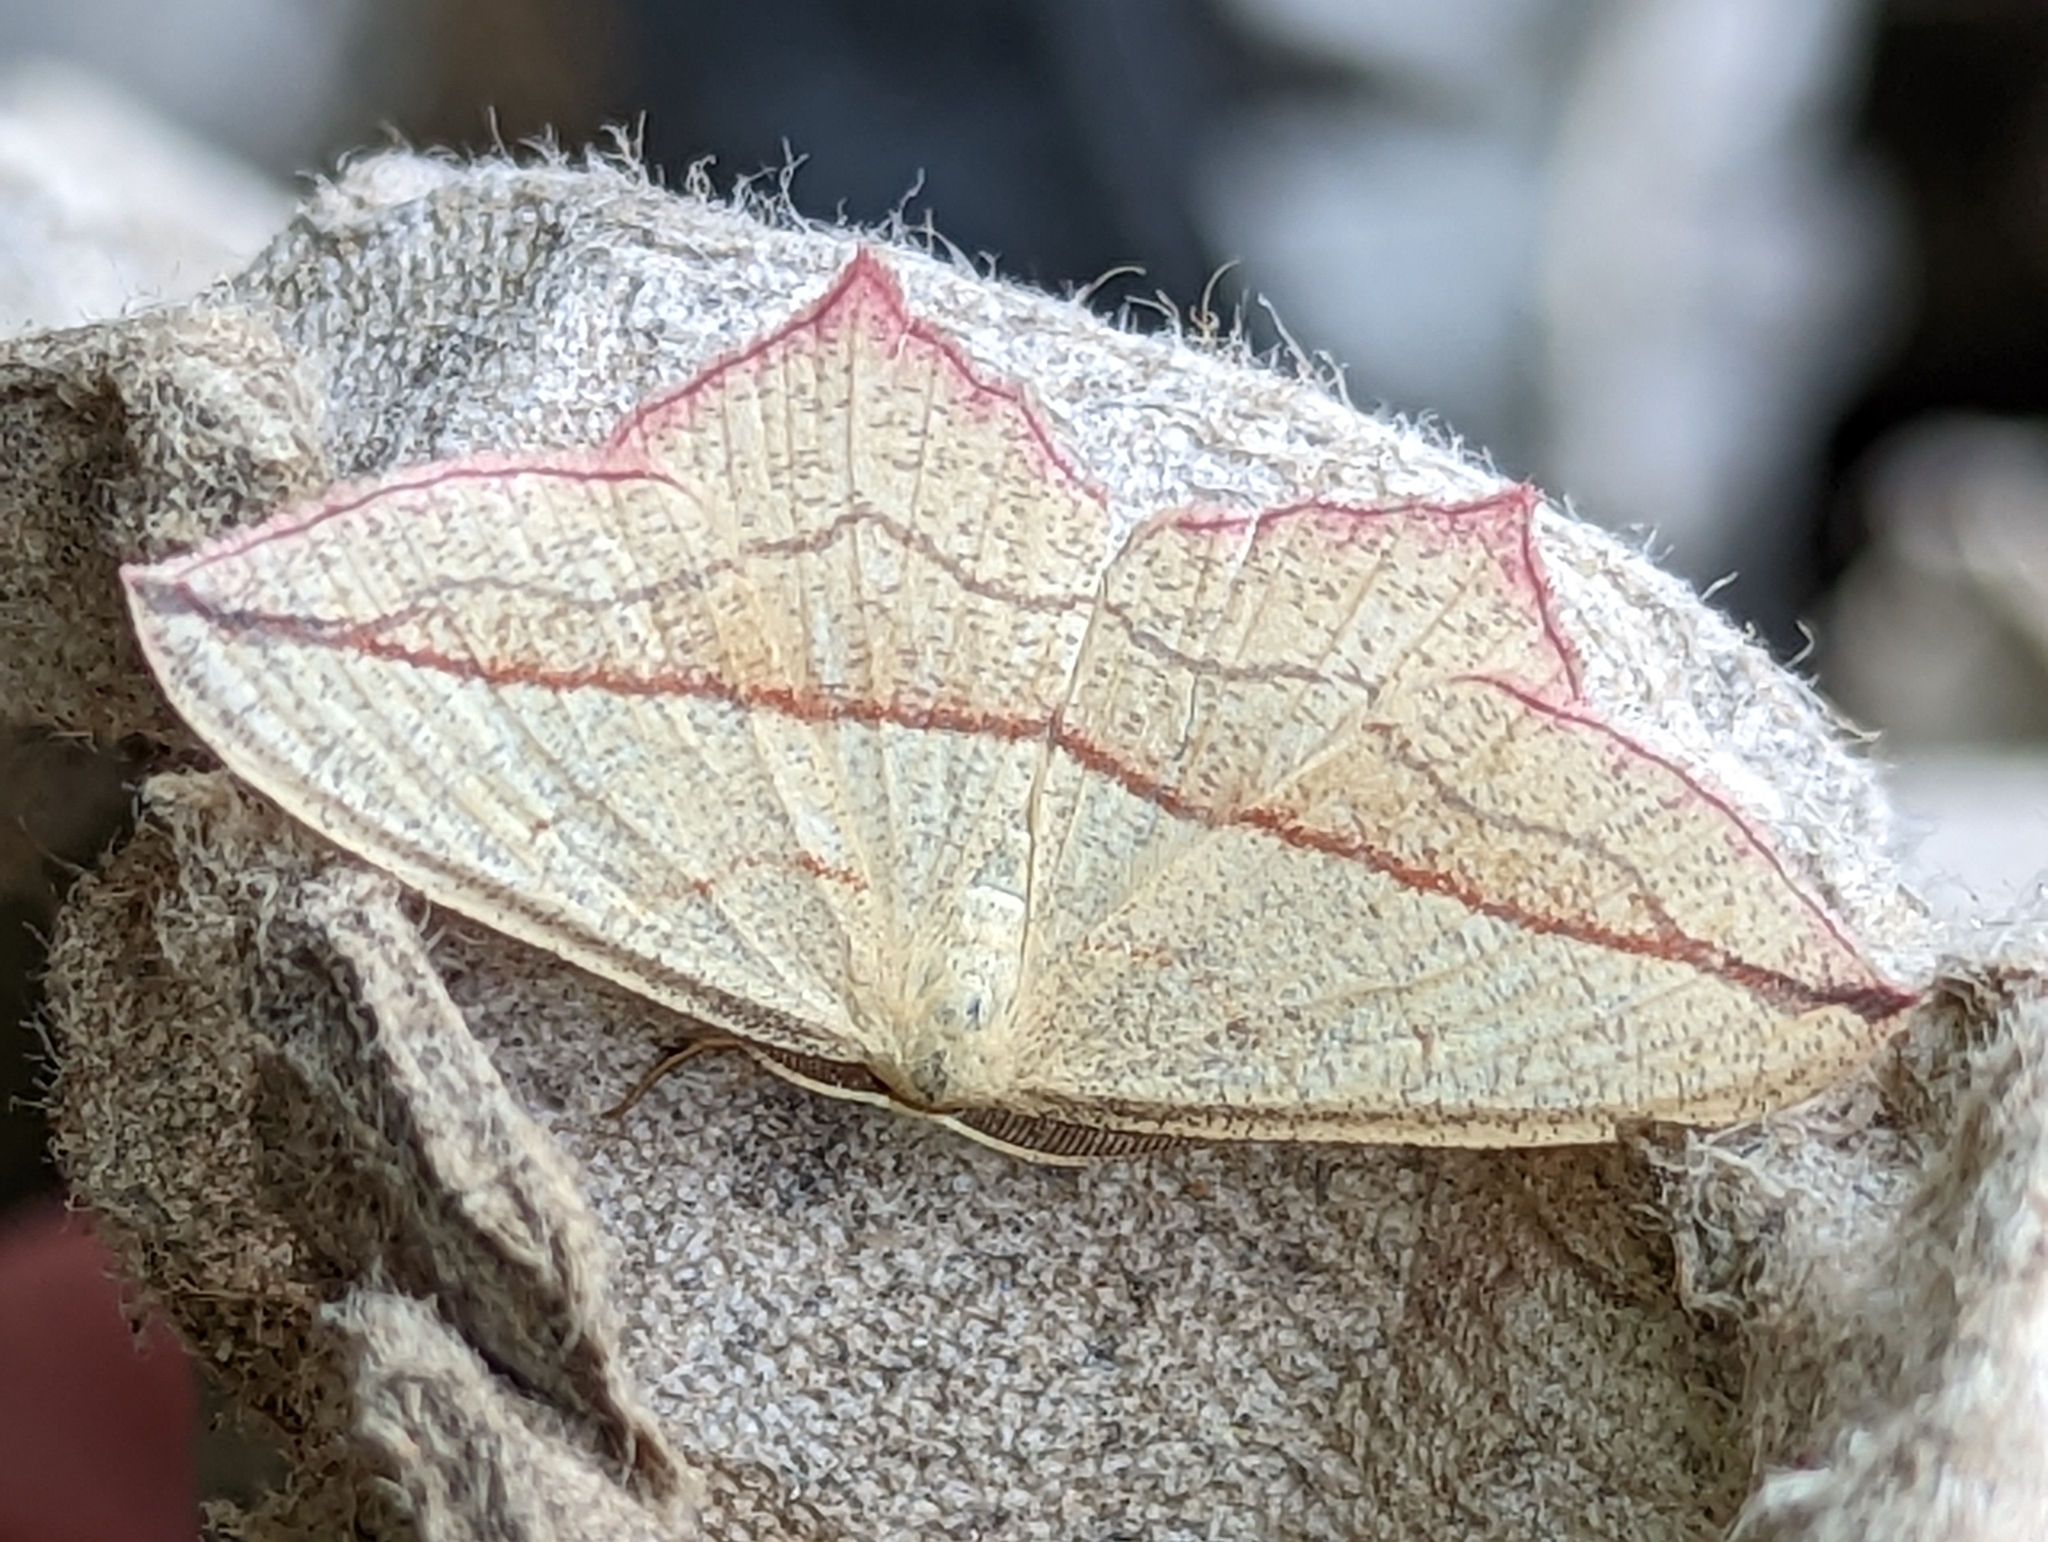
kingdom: Animalia
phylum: Arthropoda
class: Insecta
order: Lepidoptera
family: Geometridae
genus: Timandra
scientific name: Timandra comae
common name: Blood-vein
